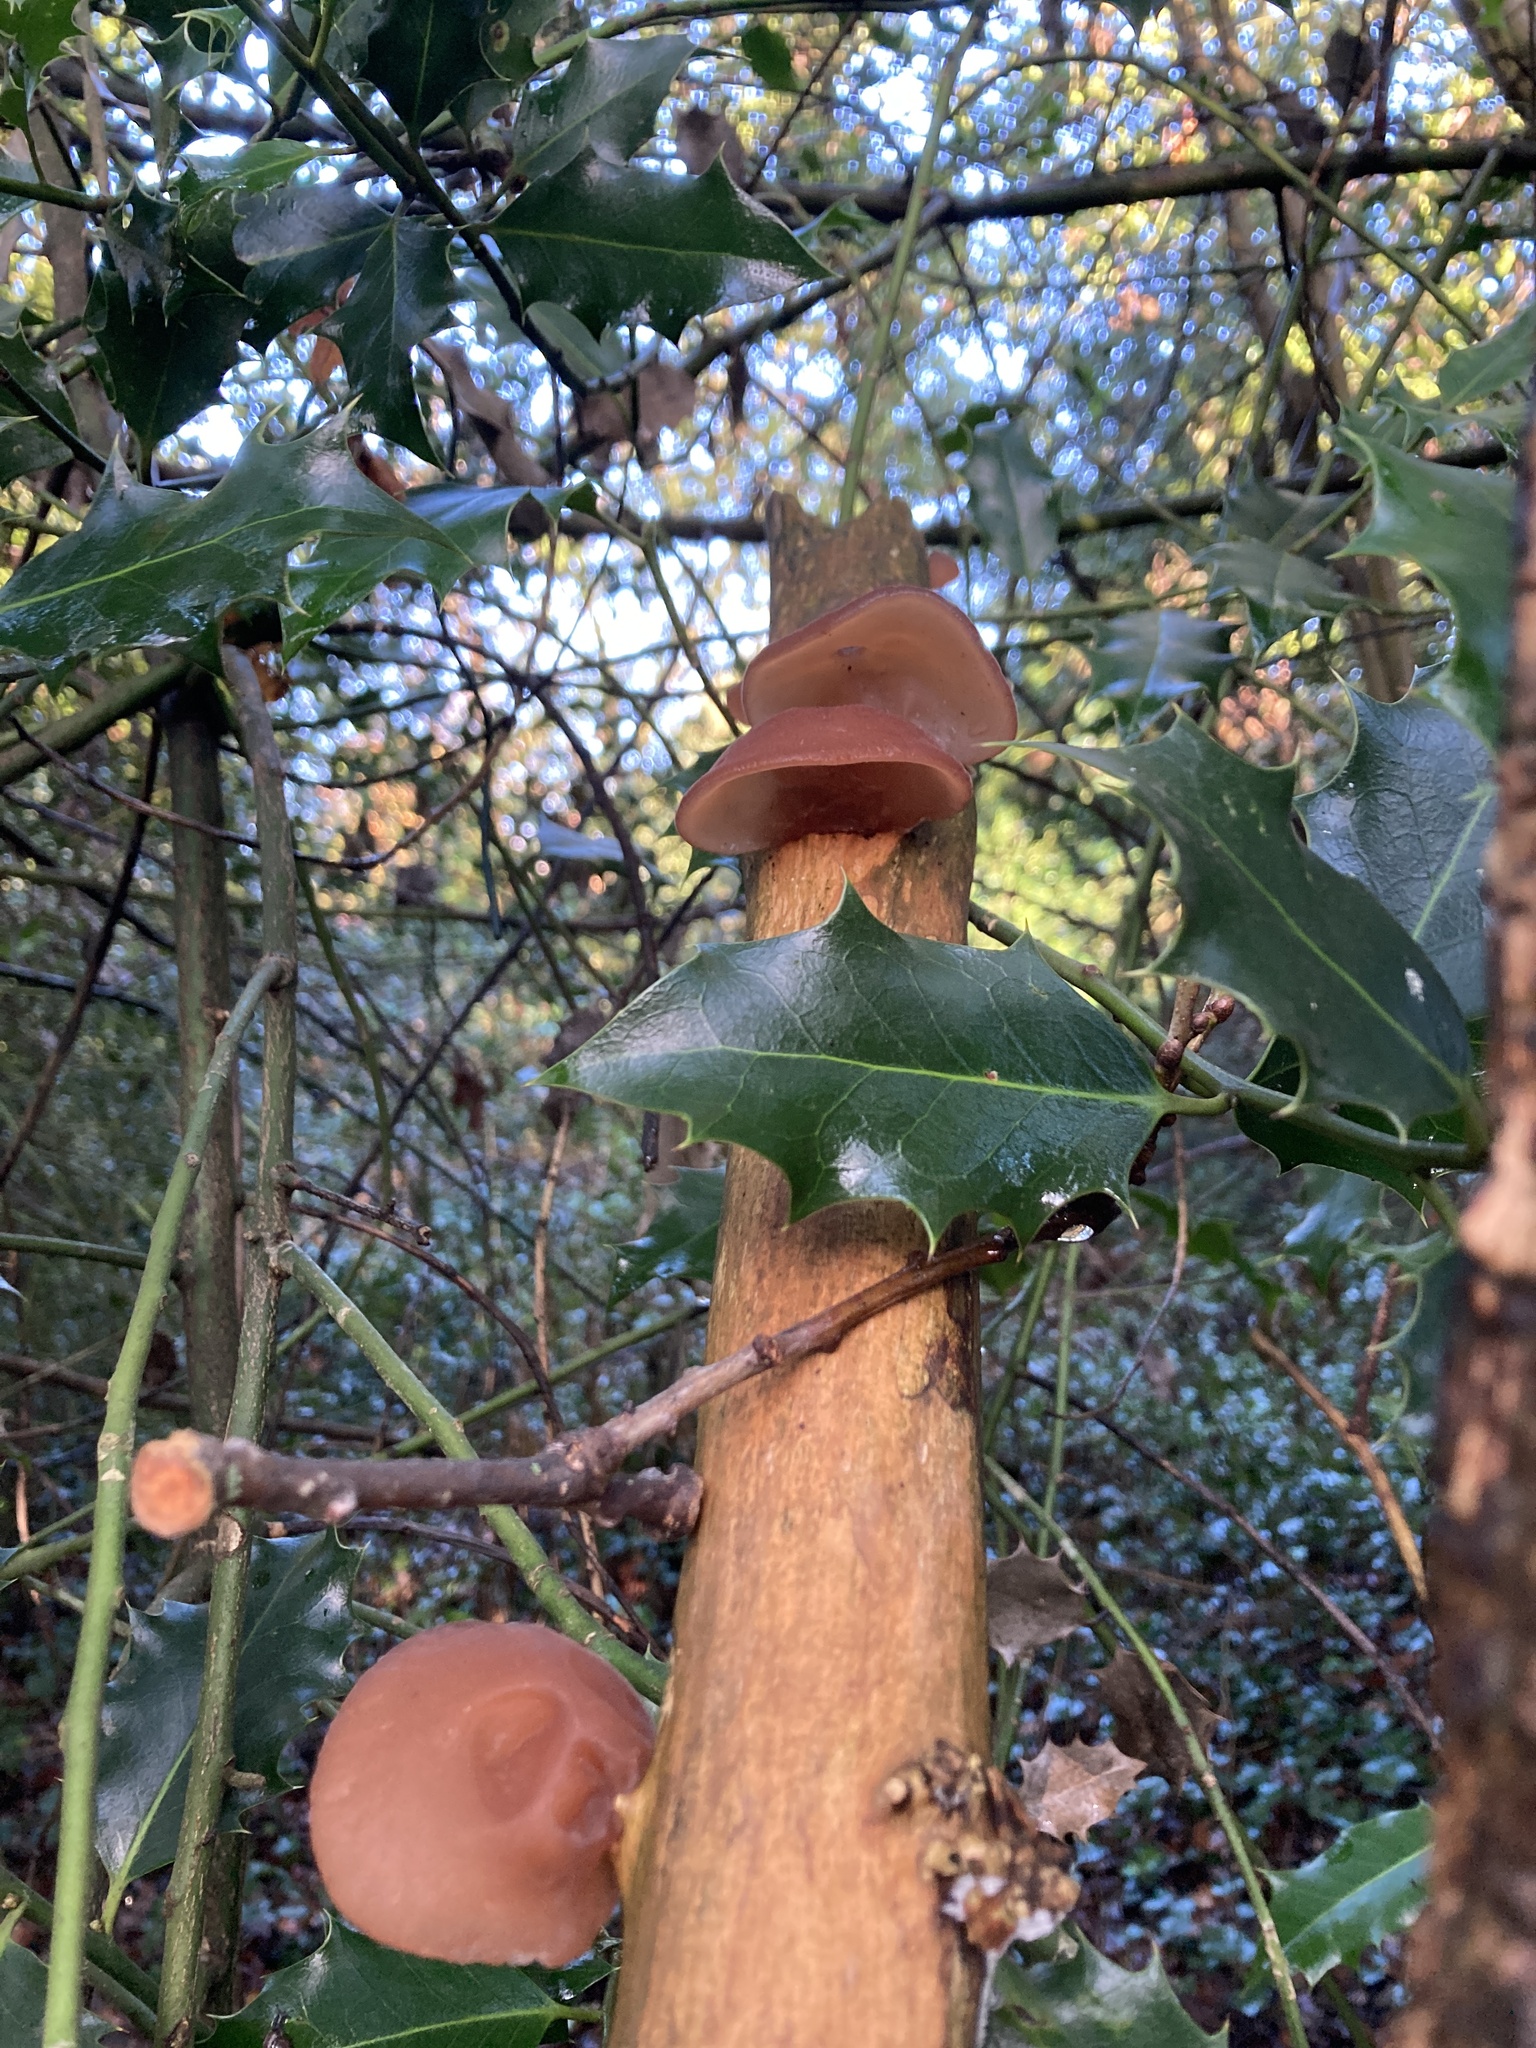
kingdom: Fungi
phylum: Basidiomycota
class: Agaricomycetes
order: Auriculariales
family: Auriculariaceae
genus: Auricularia
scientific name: Auricularia auricula-judae
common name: Jelly ear
